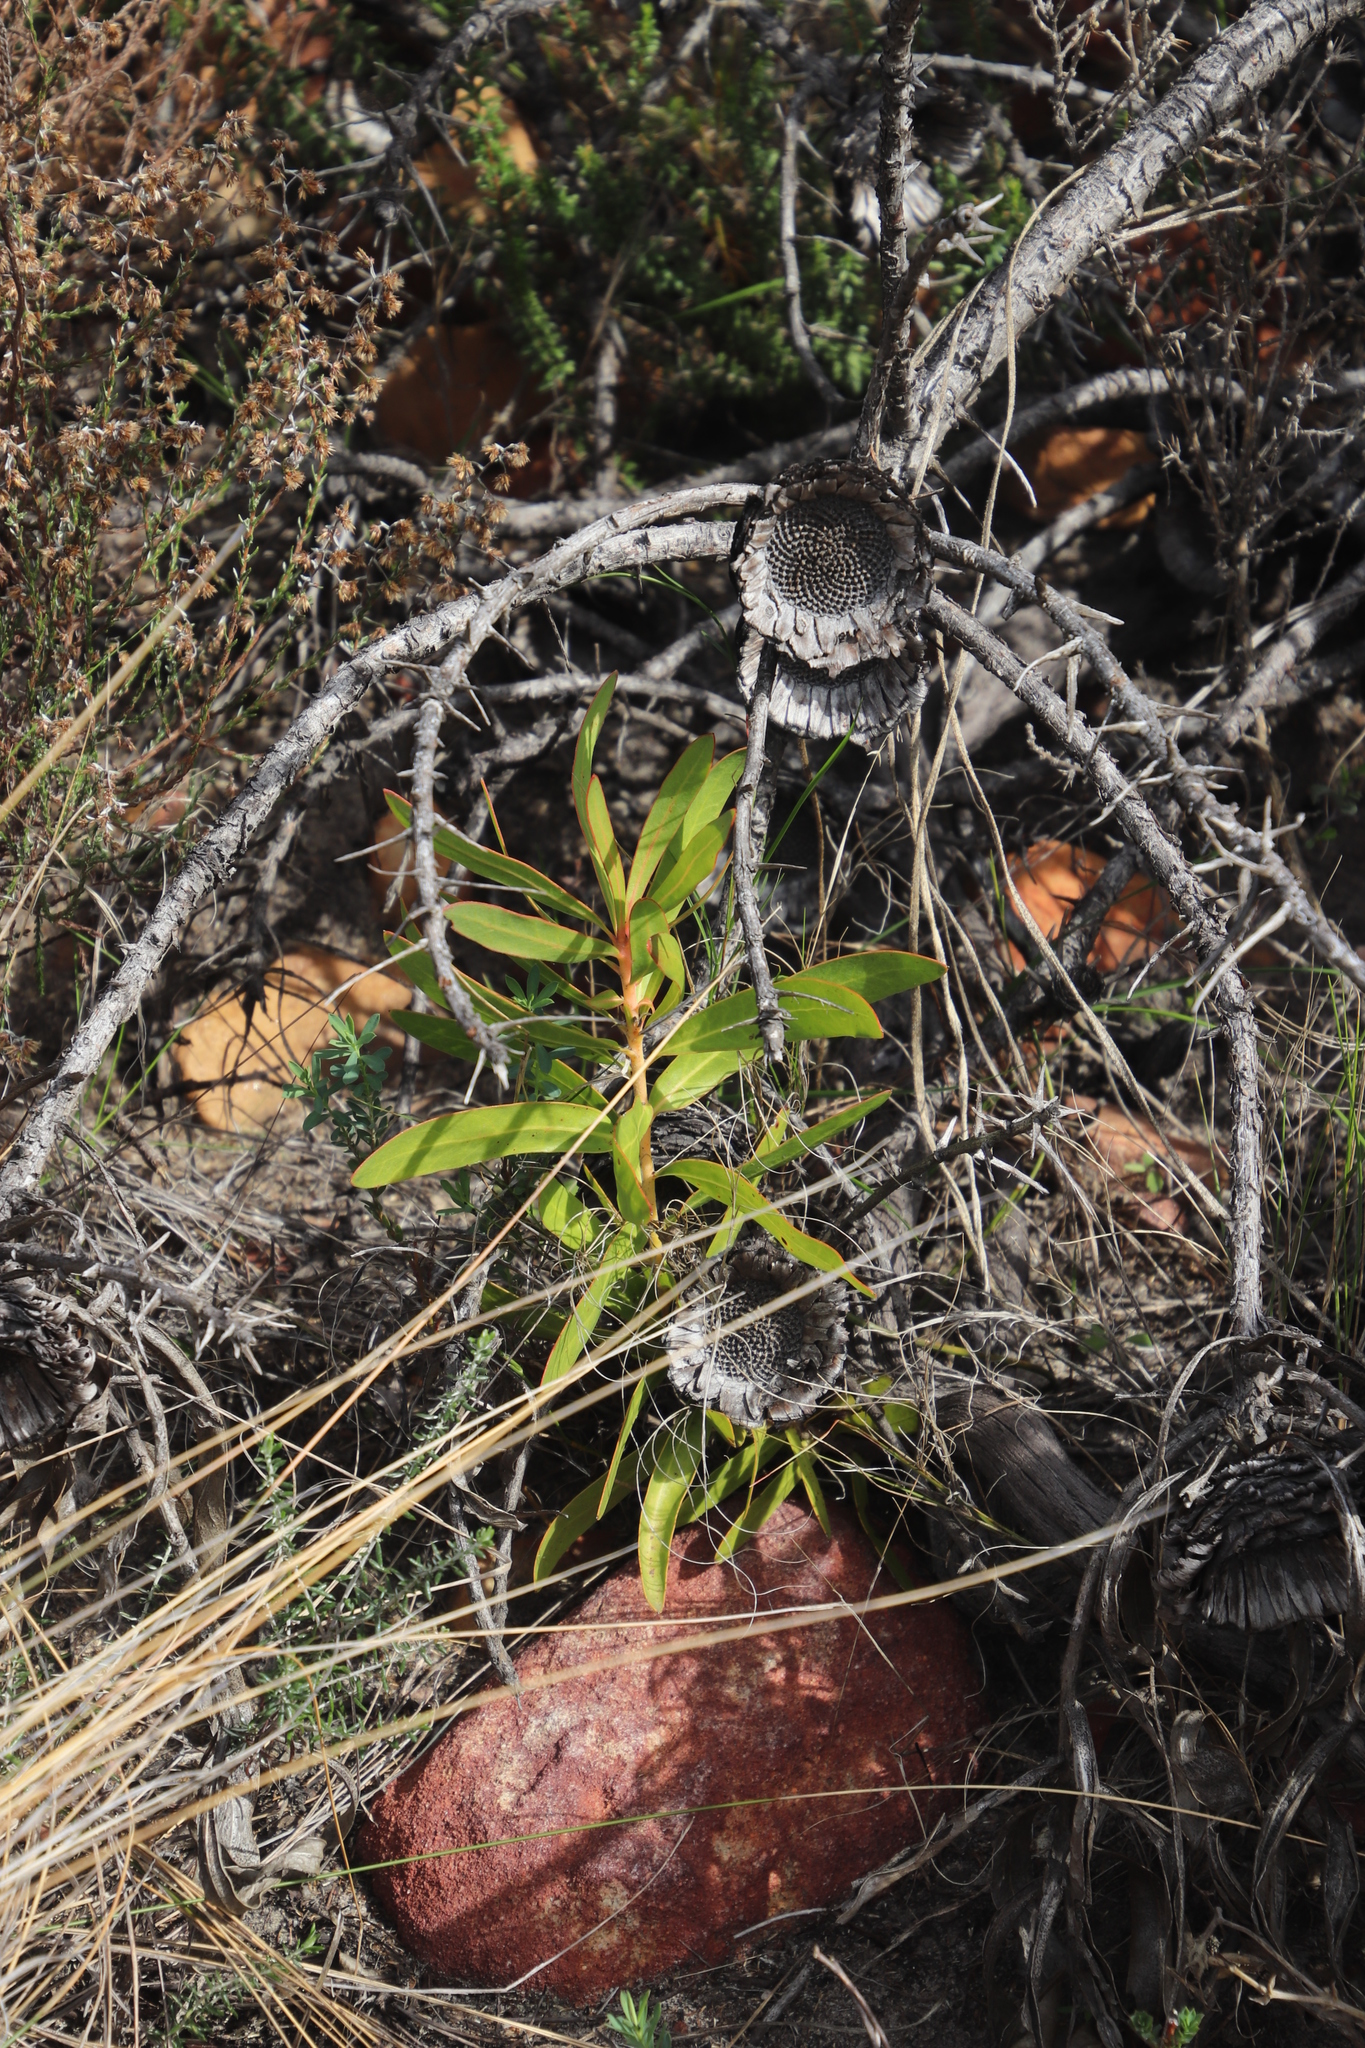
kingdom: Plantae
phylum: Tracheophyta
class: Magnoliopsida
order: Proteales
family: Proteaceae
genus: Protea
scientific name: Protea lepidocarpodendron
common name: Black-bearded protea
